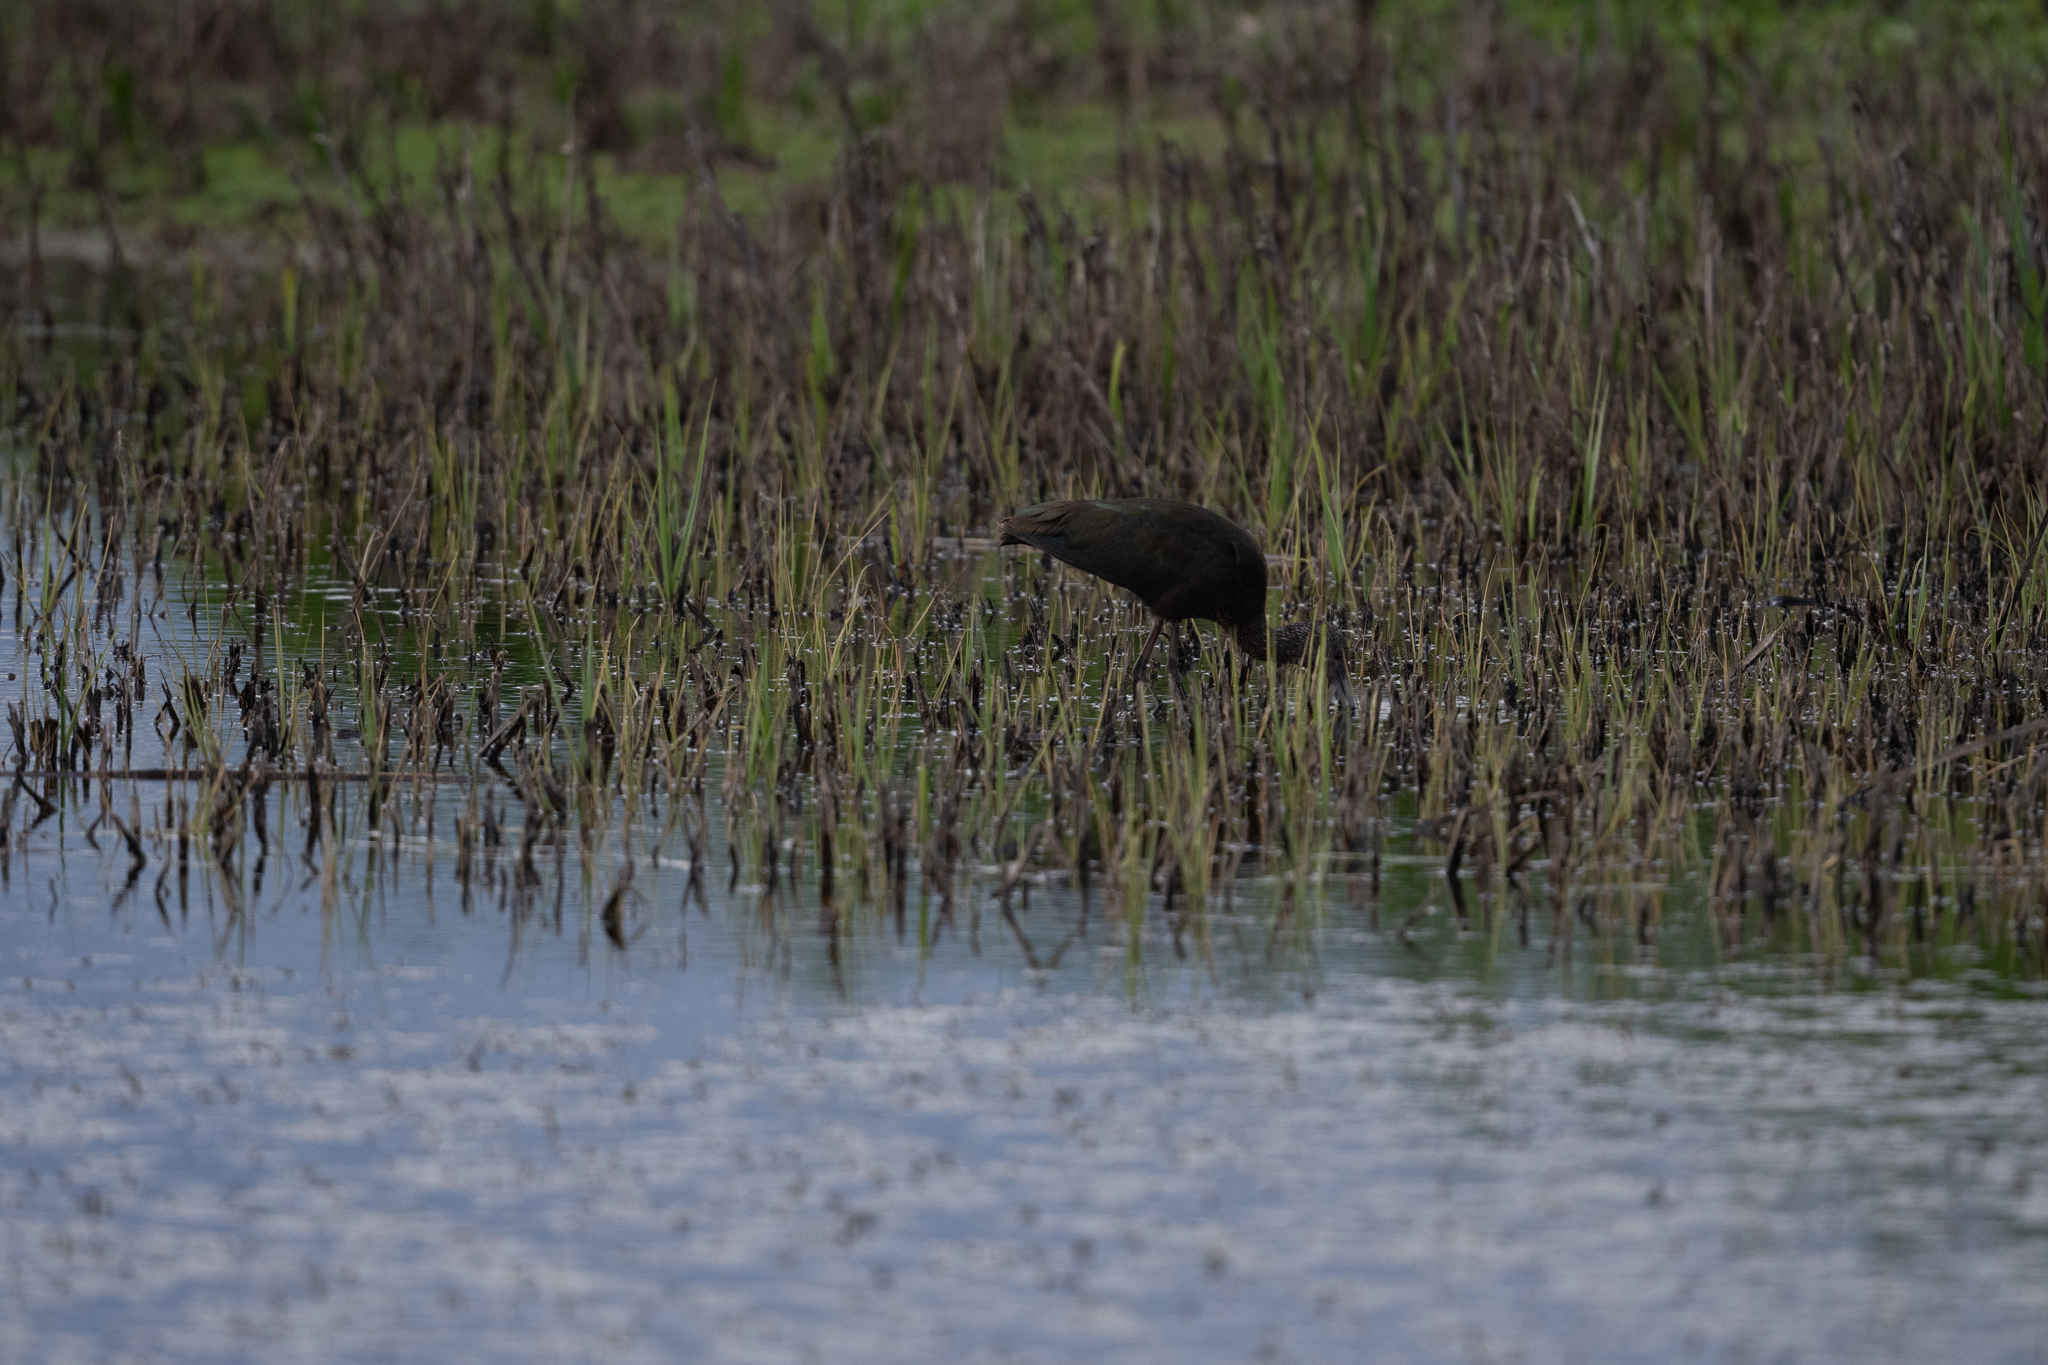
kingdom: Animalia
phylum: Chordata
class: Aves
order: Pelecaniformes
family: Threskiornithidae
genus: Plegadis
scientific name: Plegadis chihi
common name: White-faced ibis
